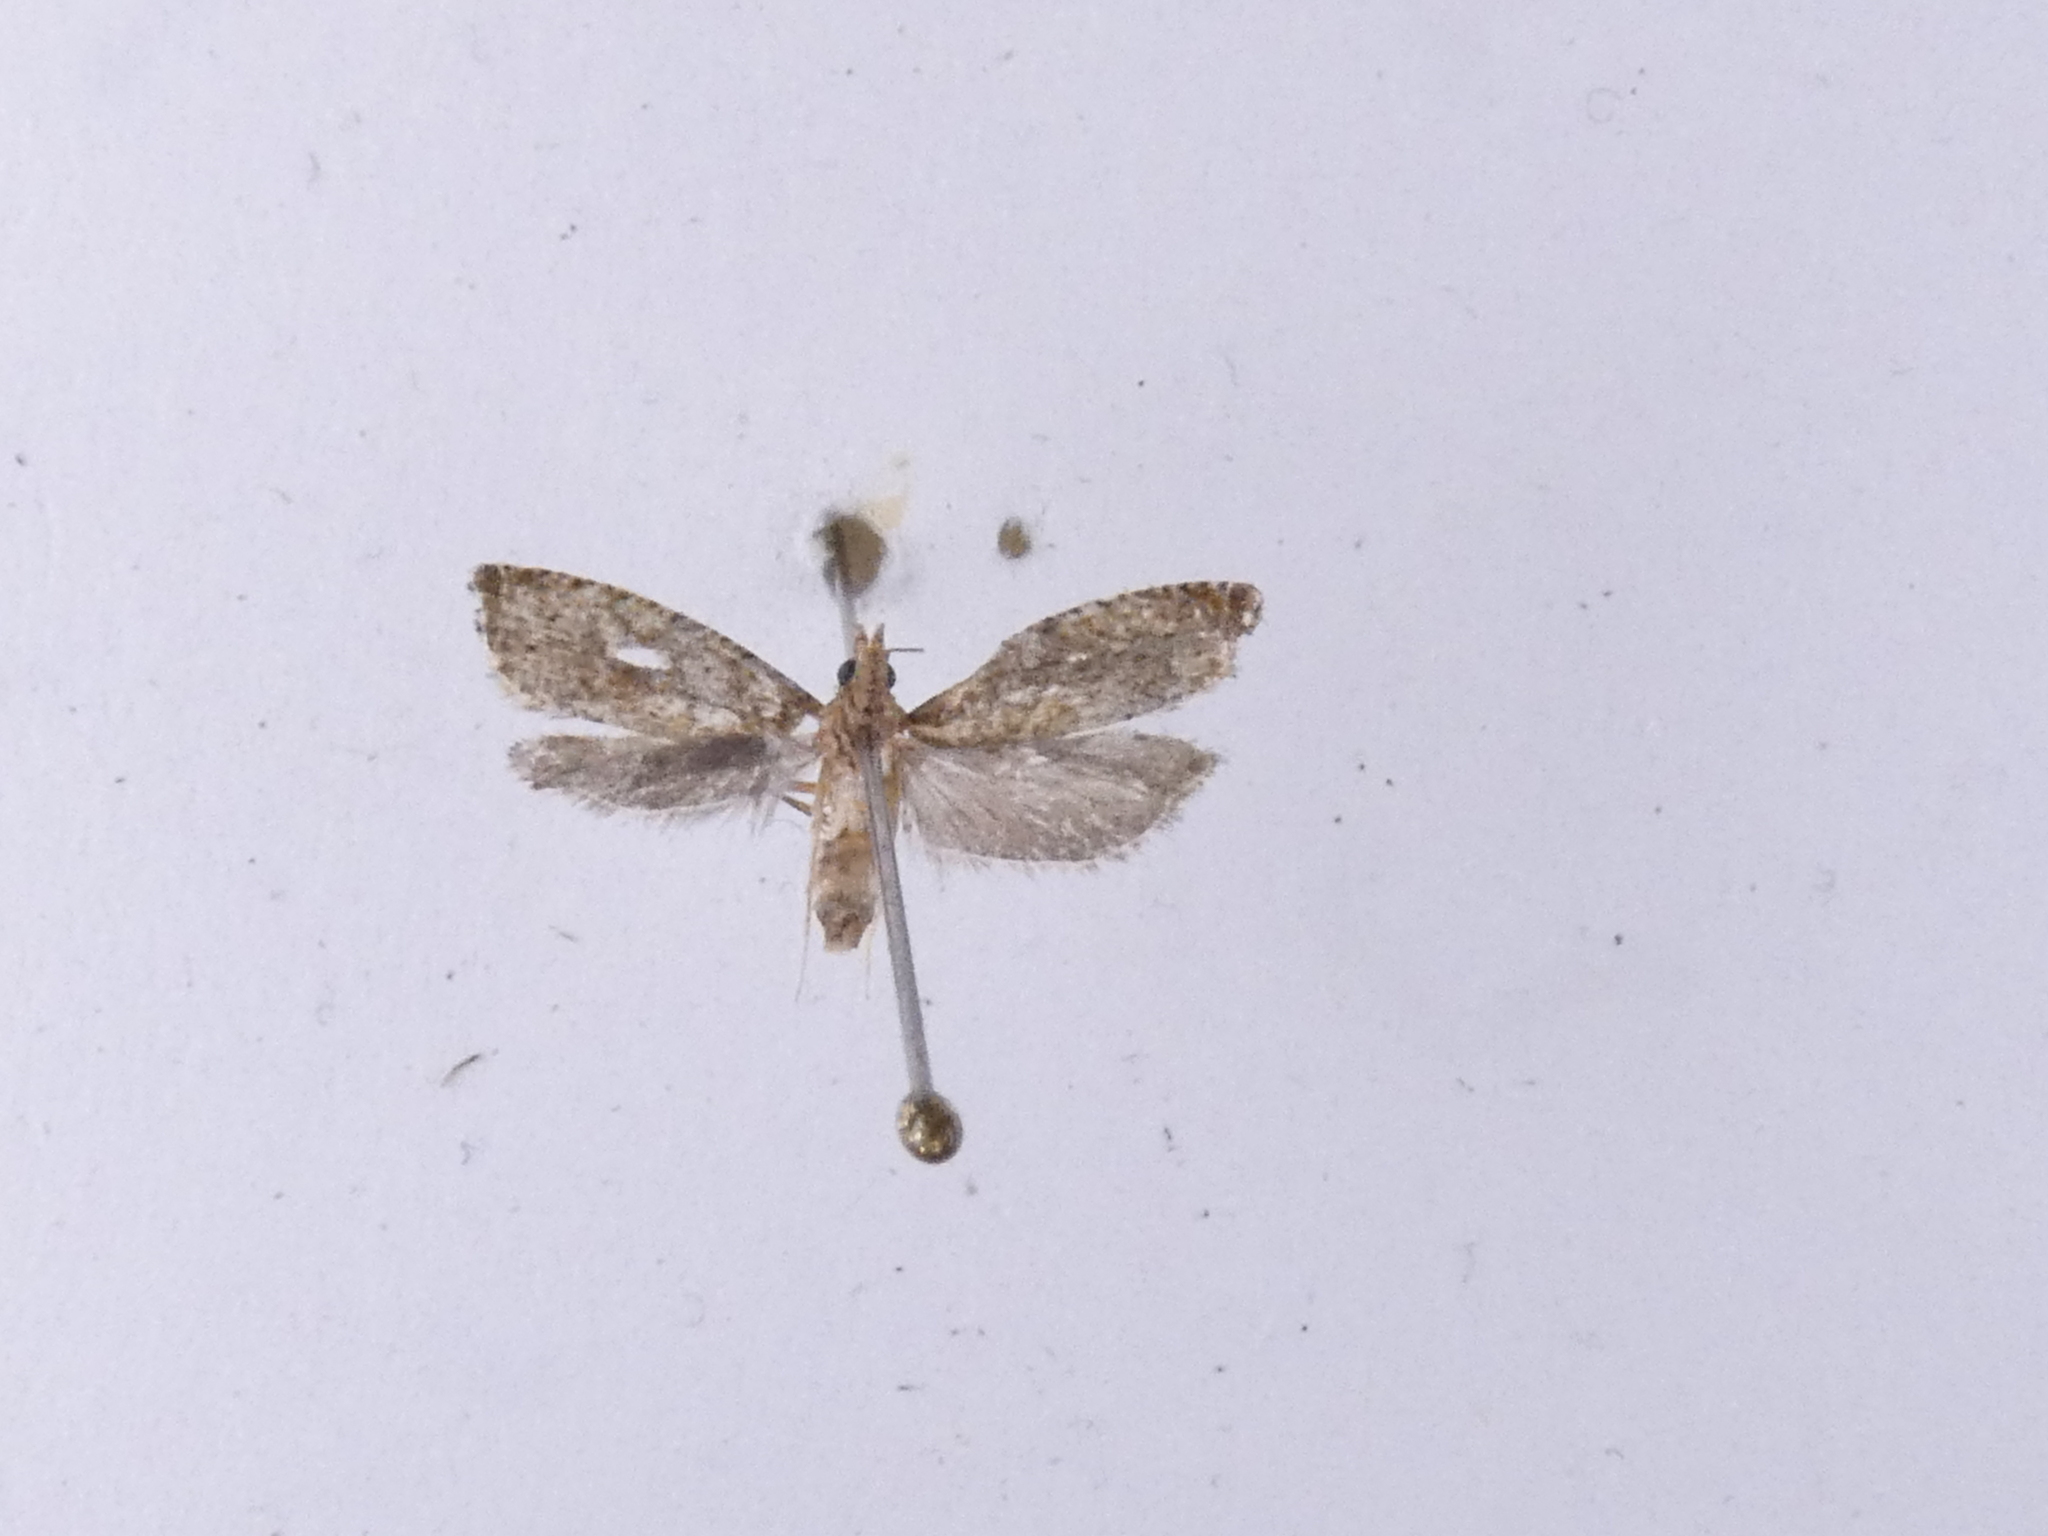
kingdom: Animalia
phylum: Arthropoda
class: Insecta
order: Lepidoptera
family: Tortricidae
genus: Cydia
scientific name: Cydia succedana
